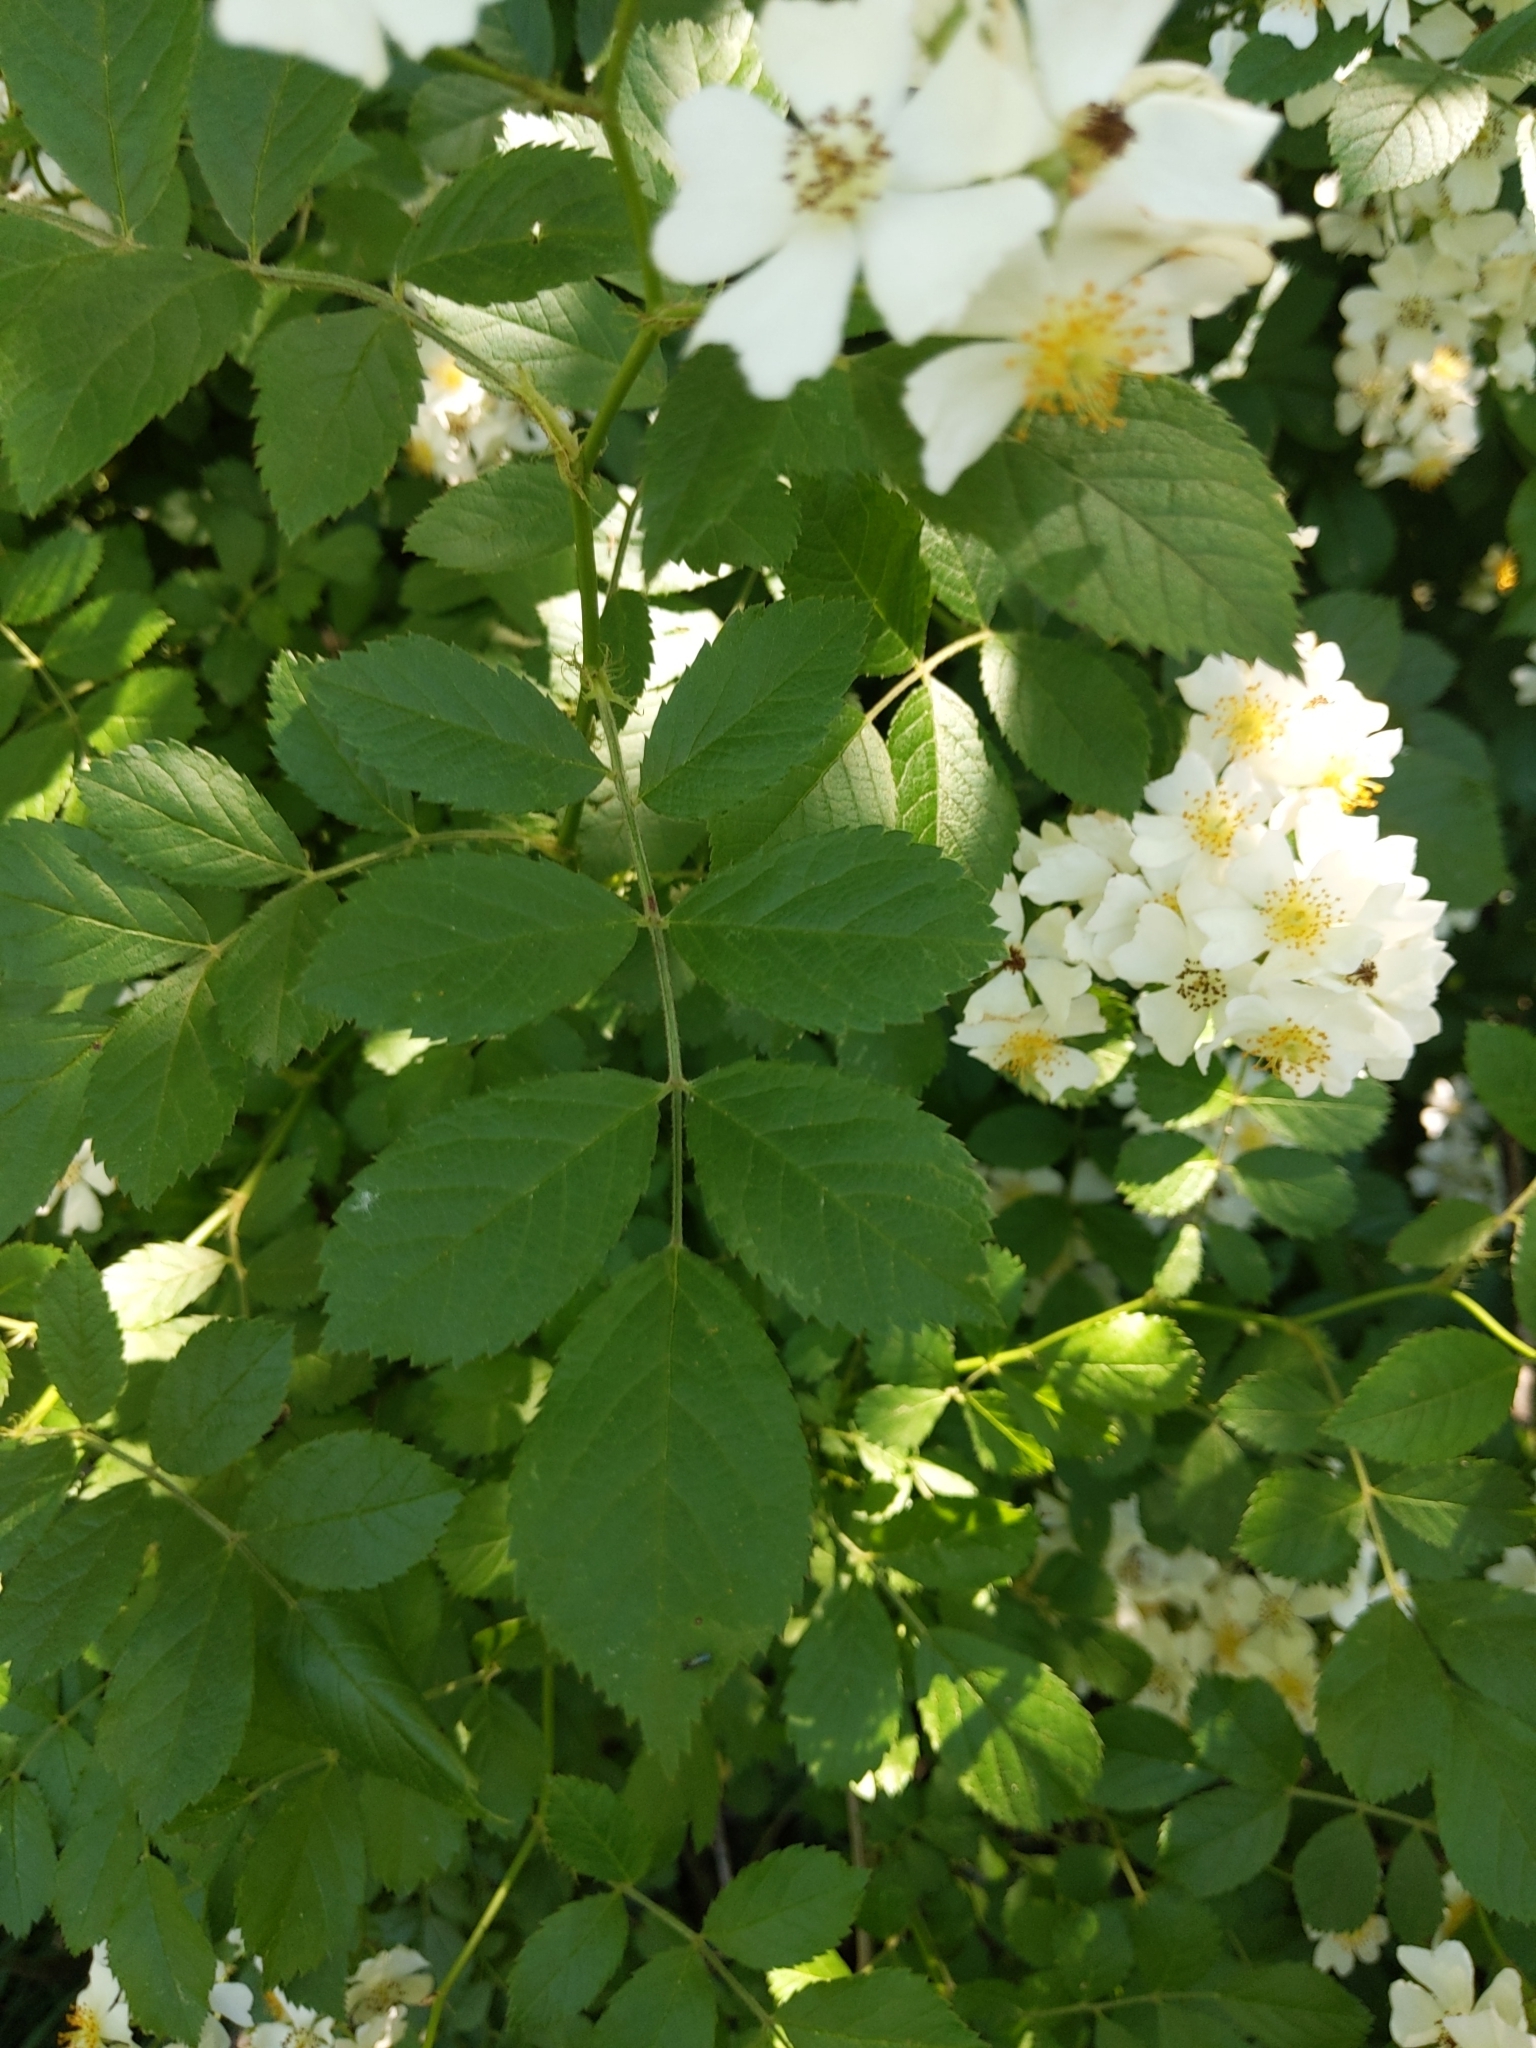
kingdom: Plantae
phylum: Tracheophyta
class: Magnoliopsida
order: Rosales
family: Rosaceae
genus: Rosa
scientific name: Rosa multiflora
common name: Multiflora rose
